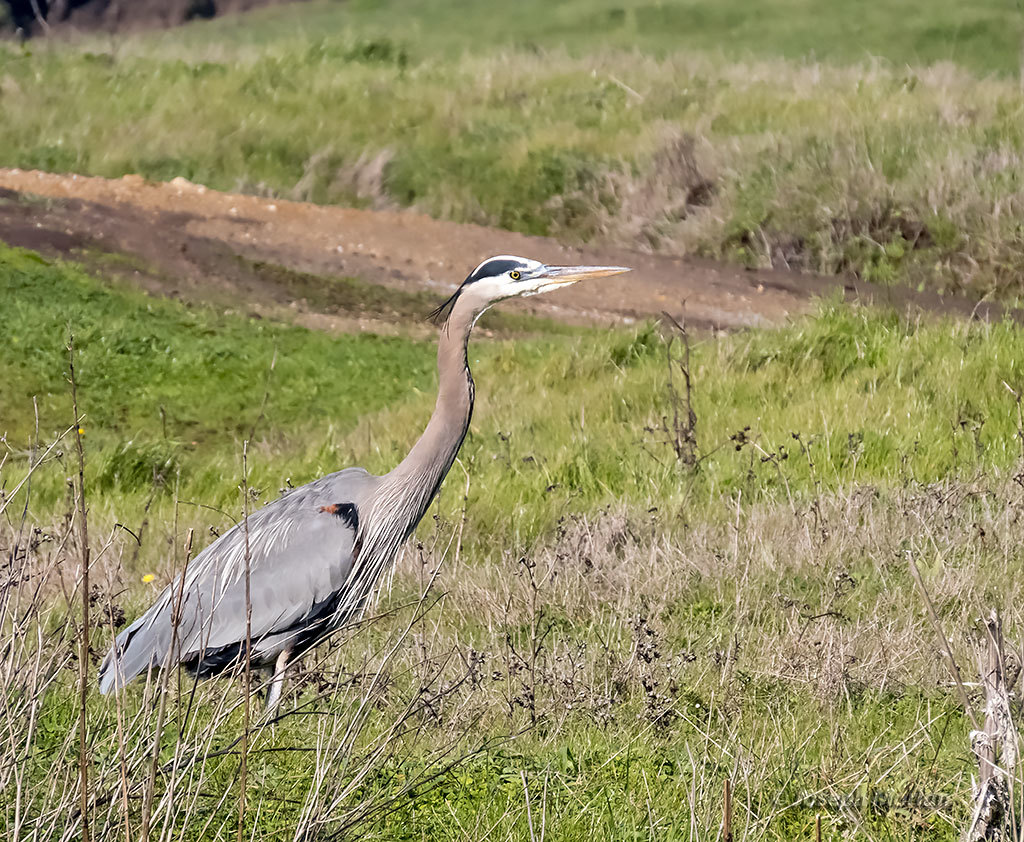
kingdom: Animalia
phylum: Chordata
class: Aves
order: Pelecaniformes
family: Ardeidae
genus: Ardea
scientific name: Ardea herodias
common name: Great blue heron
